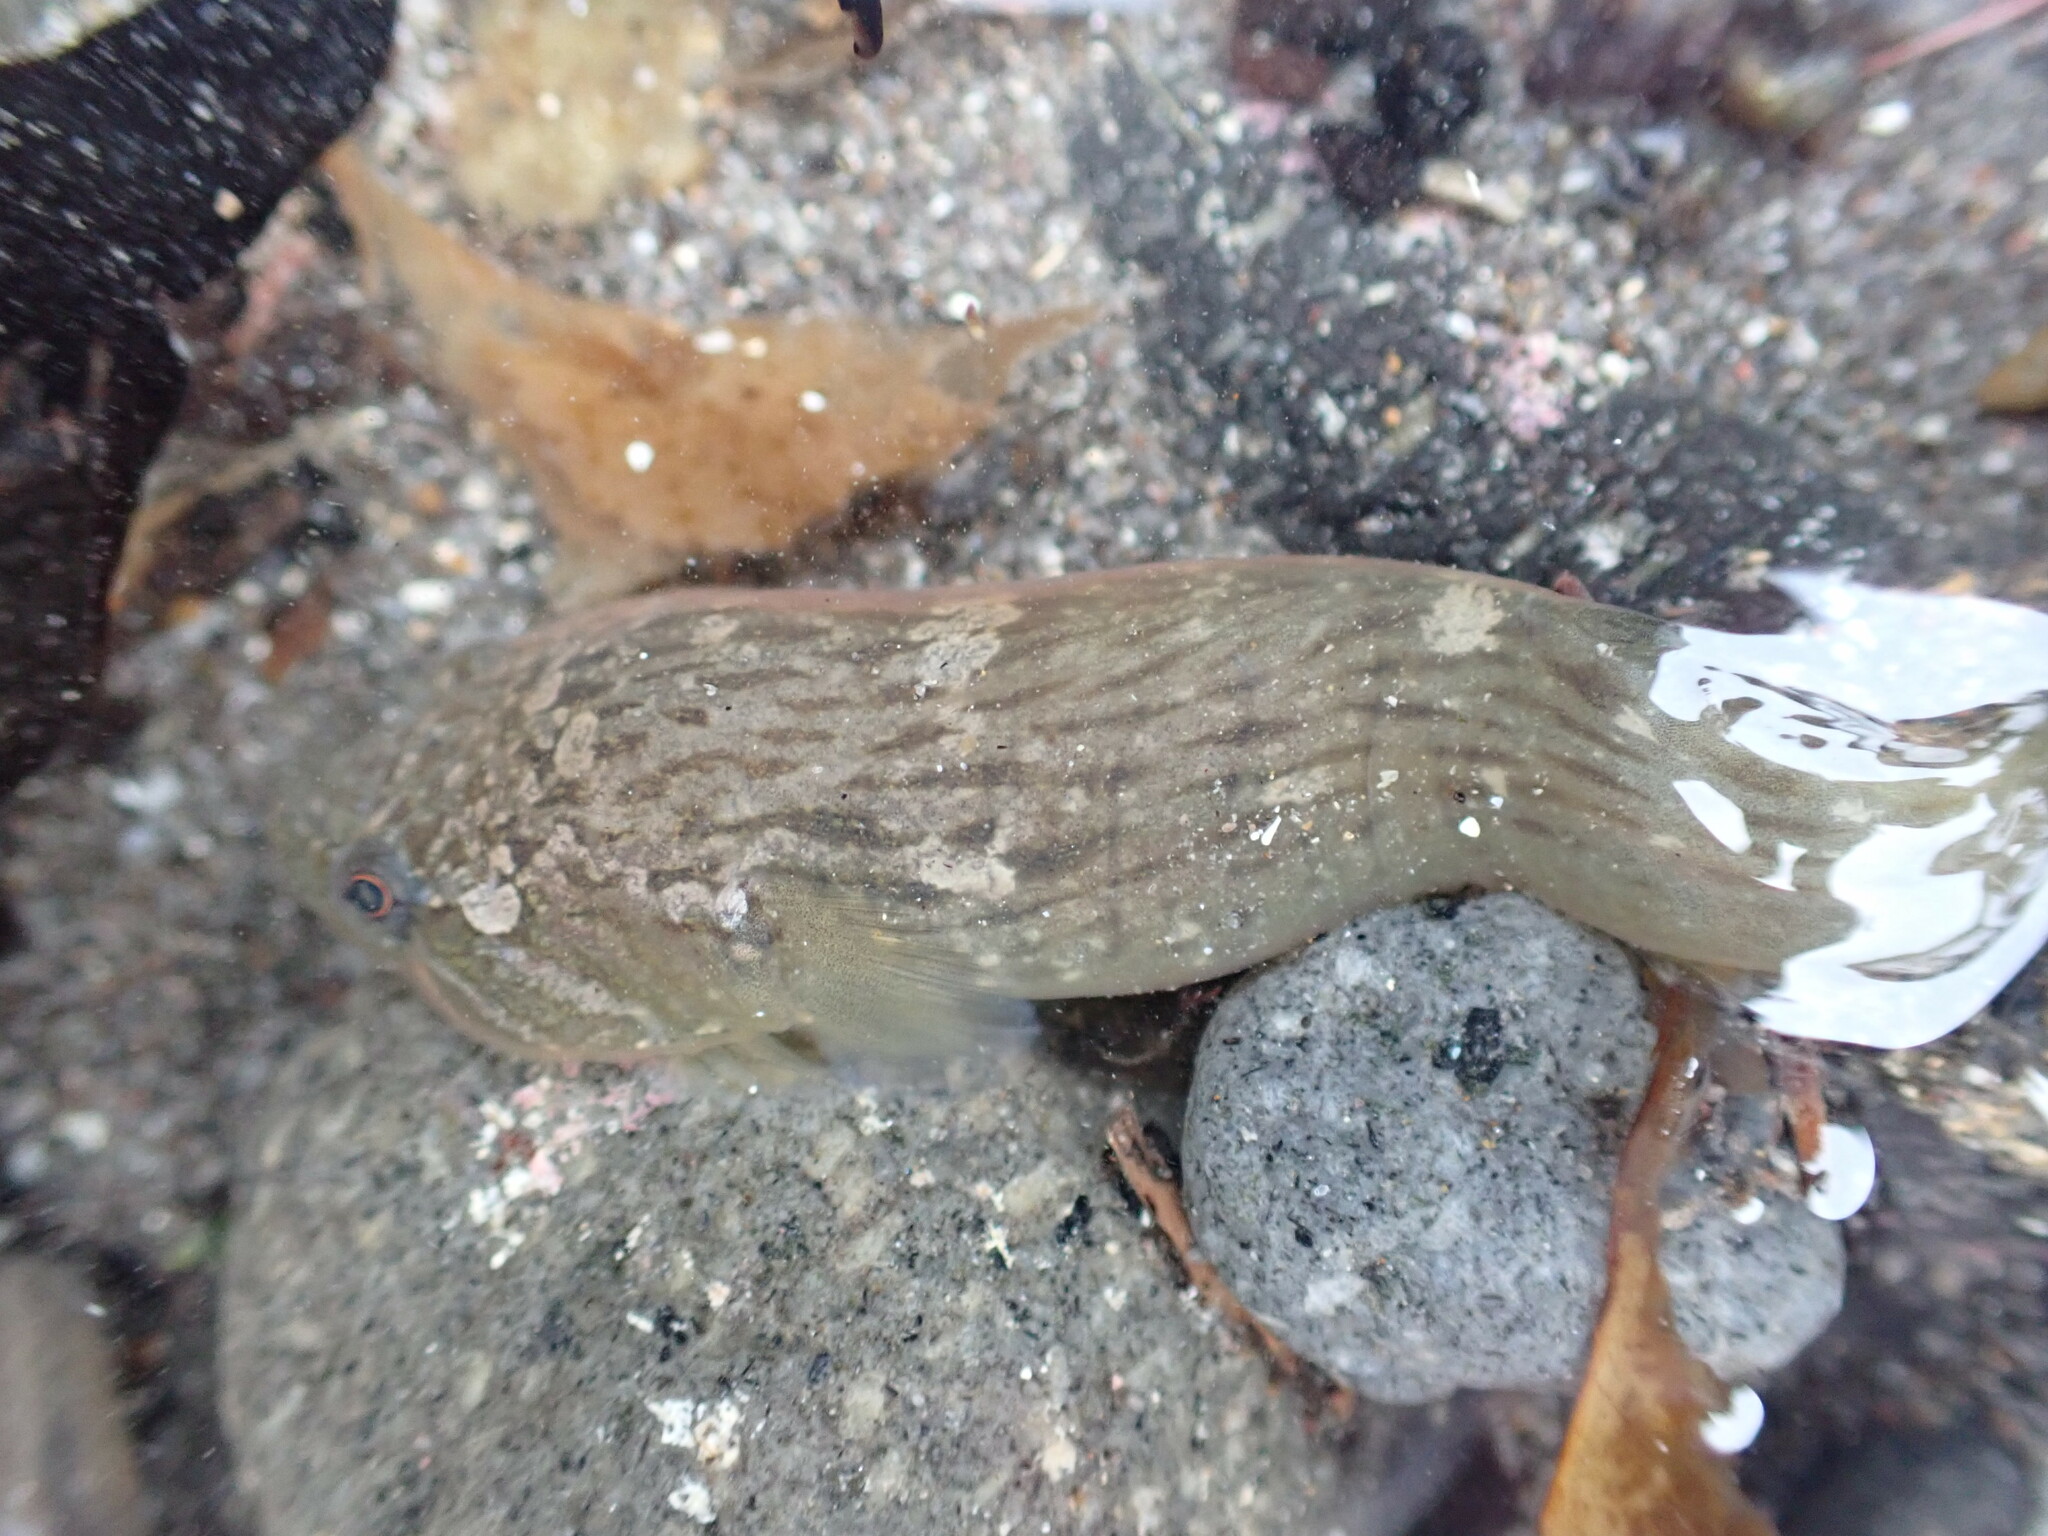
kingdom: Animalia
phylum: Chordata
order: Gobiesociformes
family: Gobiesocidae
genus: Trachelochismus
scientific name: Trachelochismus pinnulatus
